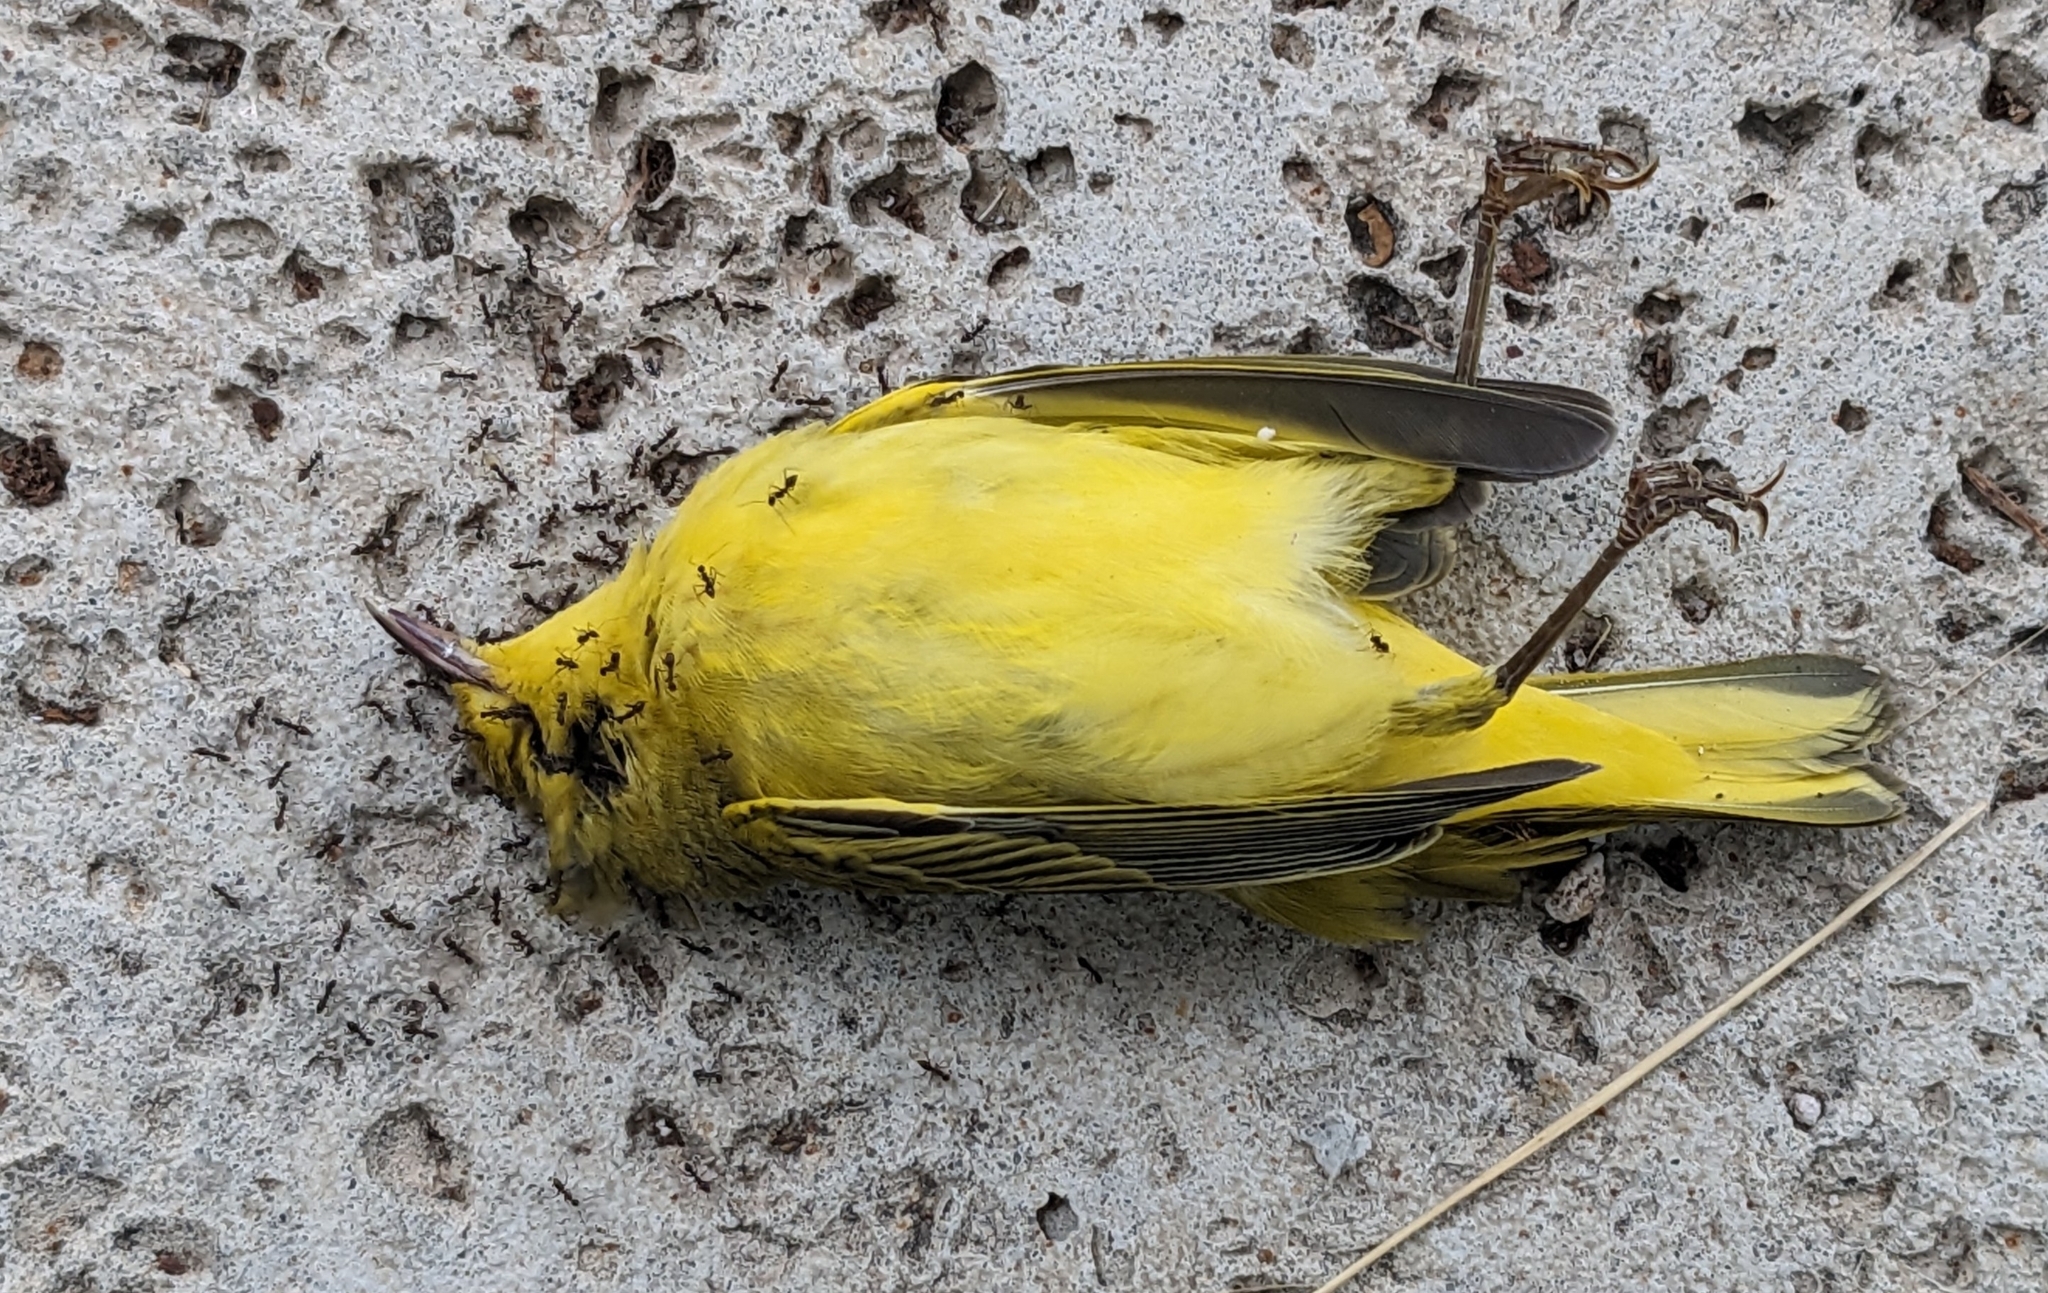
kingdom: Animalia
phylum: Chordata
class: Aves
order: Passeriformes
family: Parulidae
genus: Setophaga
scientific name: Setophaga petechia
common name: Yellow warbler
